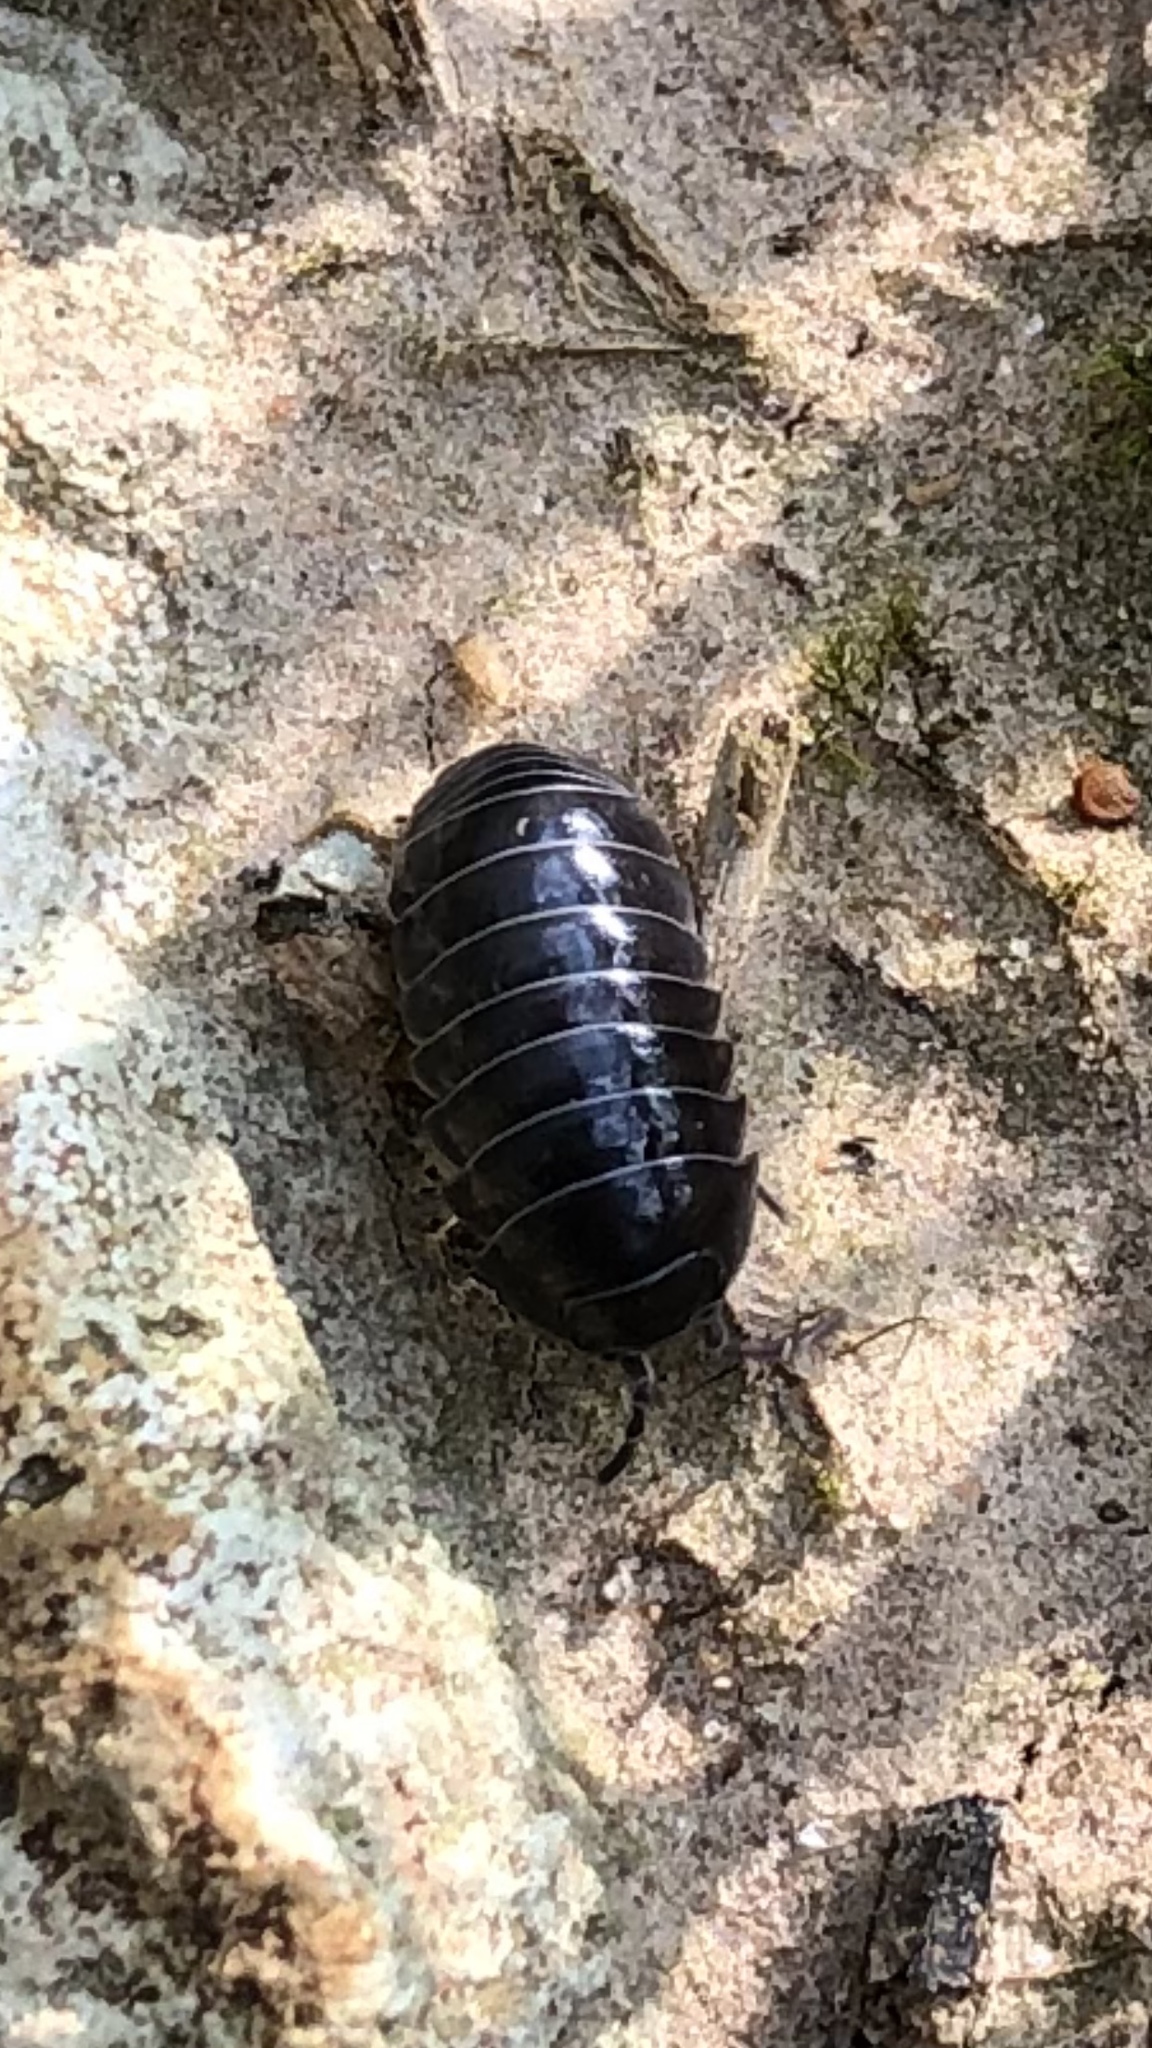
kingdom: Animalia
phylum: Arthropoda
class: Malacostraca
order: Isopoda
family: Armadillidiidae
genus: Armadillidium
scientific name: Armadillidium vulgare
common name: Common pill woodlouse
